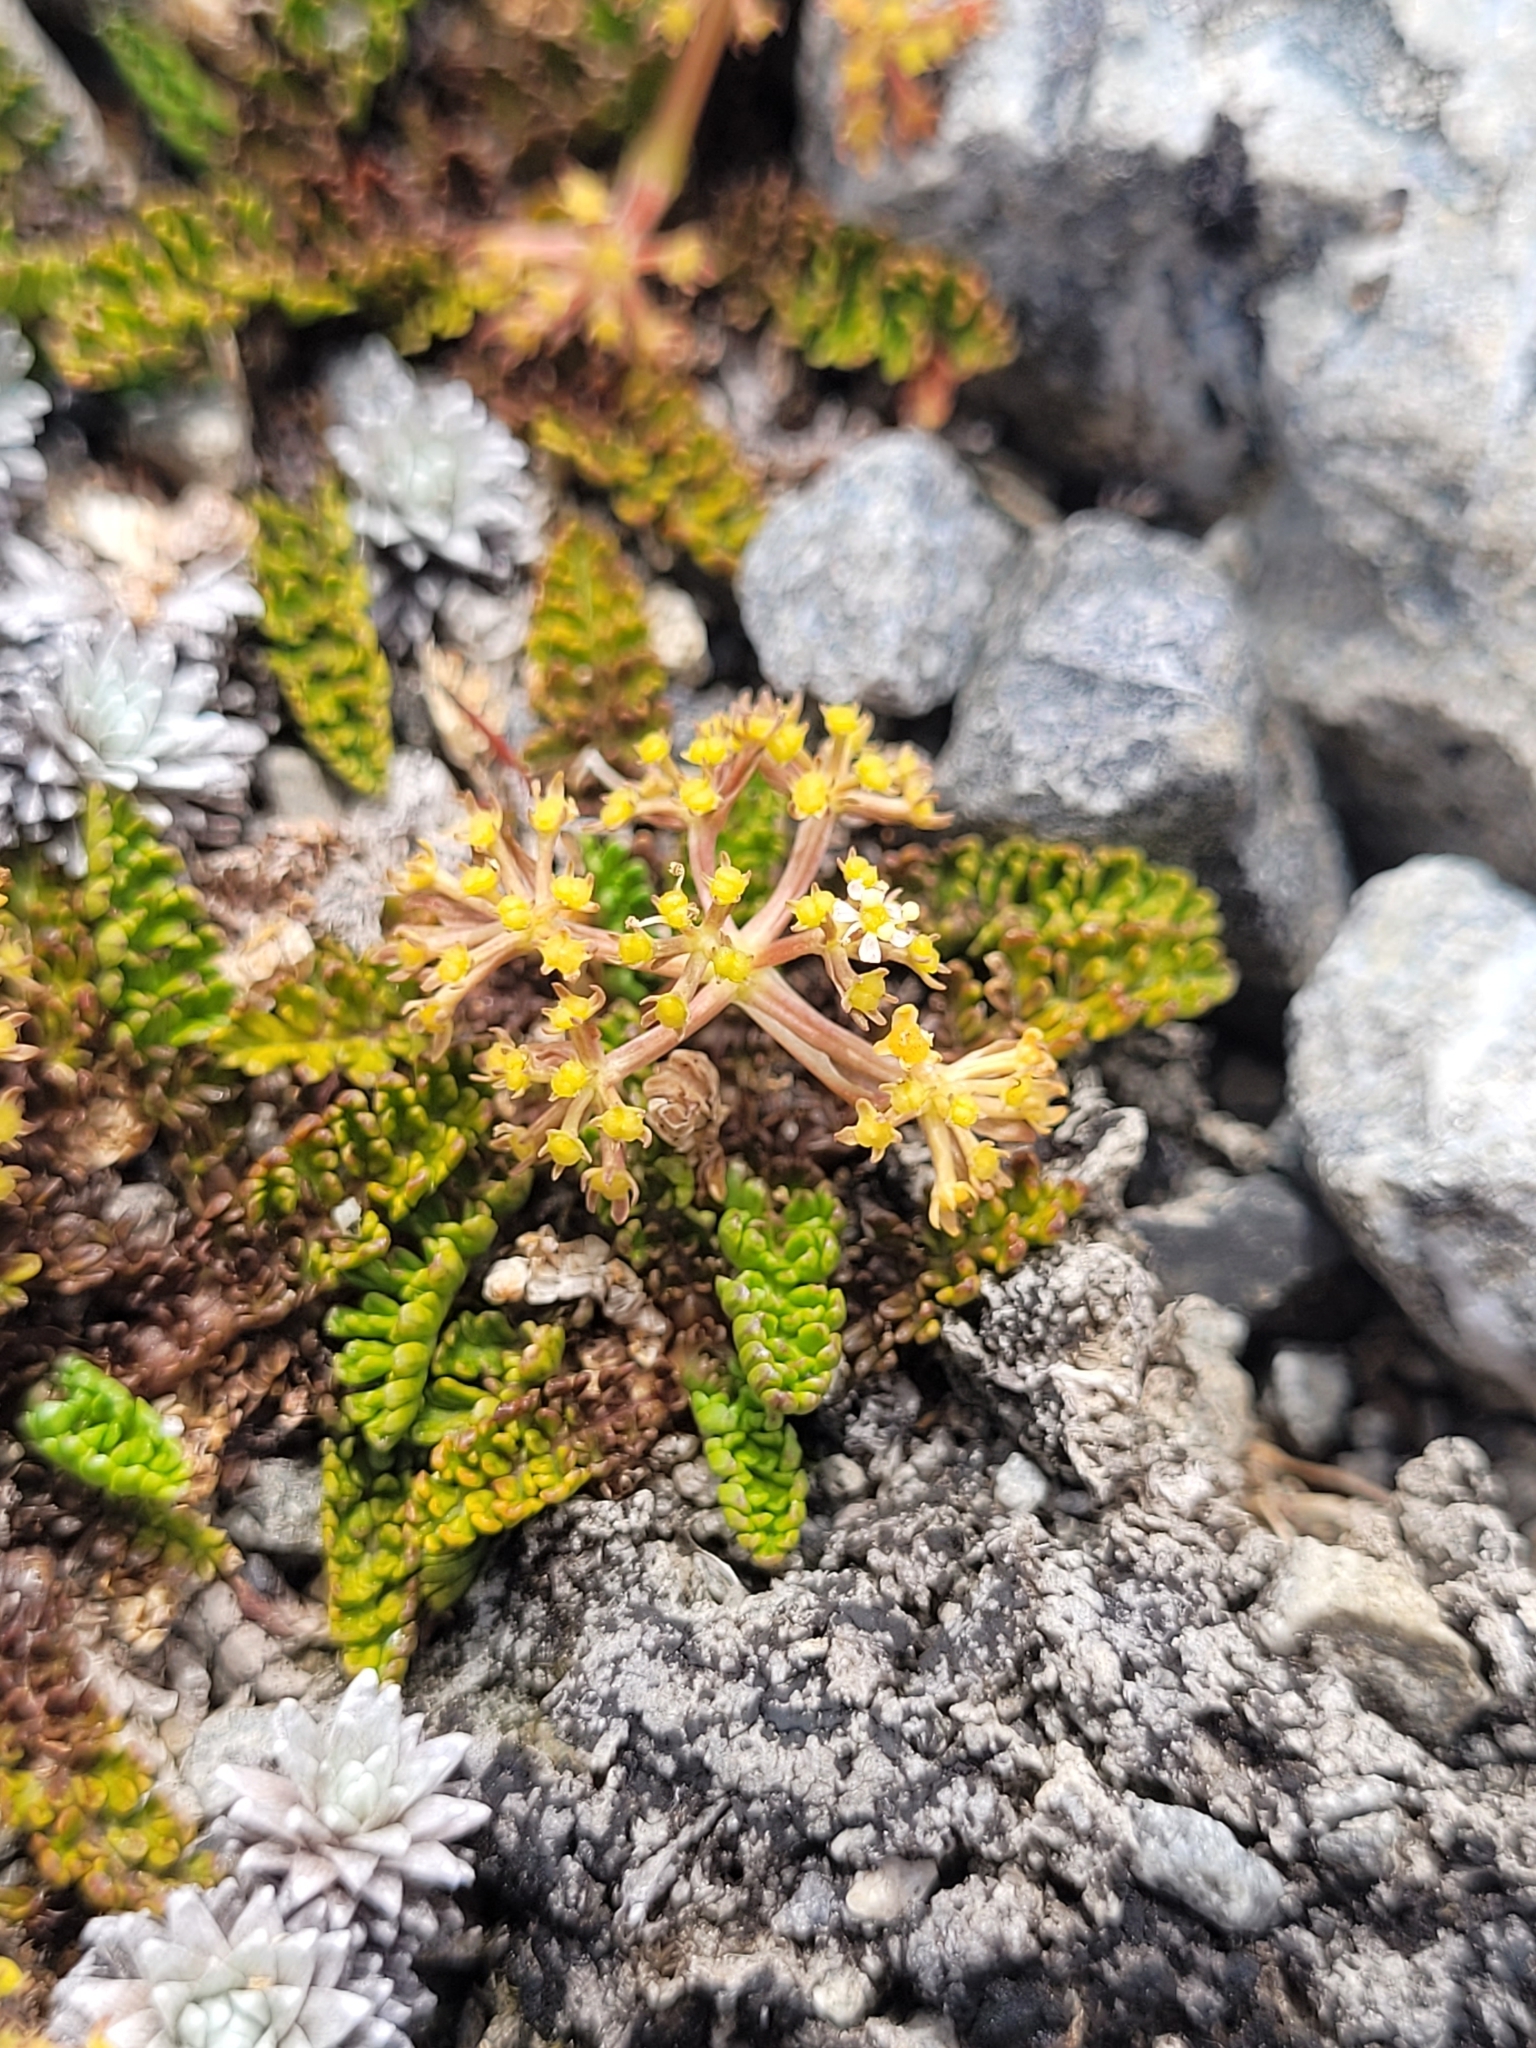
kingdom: Plantae
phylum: Tracheophyta
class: Magnoliopsida
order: Apiales
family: Apiaceae
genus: Anisotome
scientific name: Anisotome flexuosa
